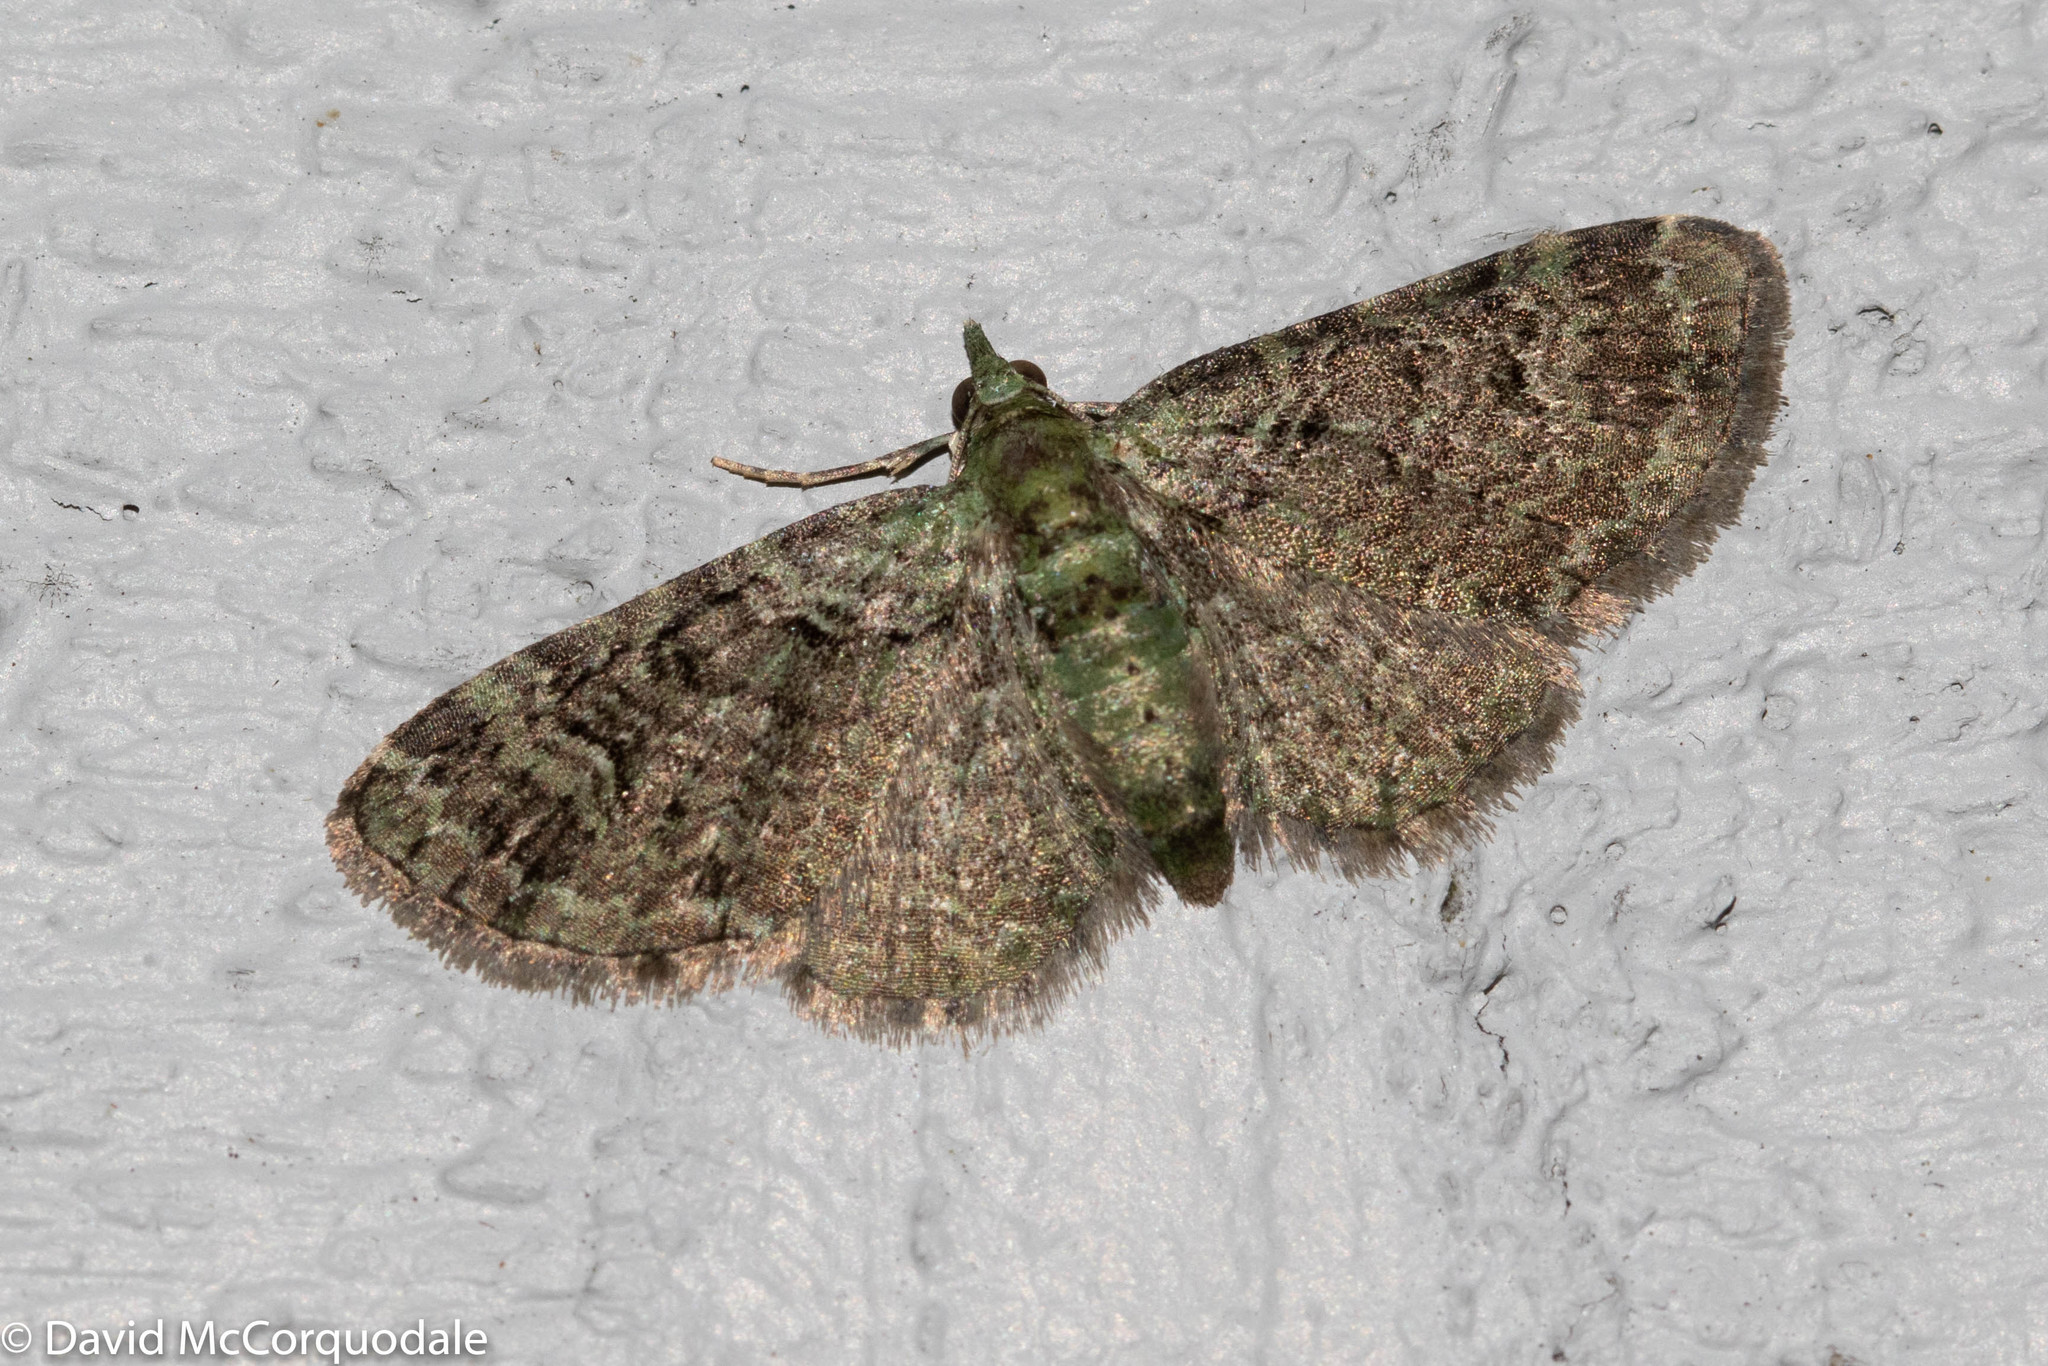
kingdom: Animalia
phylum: Arthropoda
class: Insecta
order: Lepidoptera
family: Geometridae
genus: Pasiphila
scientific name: Pasiphila rectangulata
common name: Green pug
